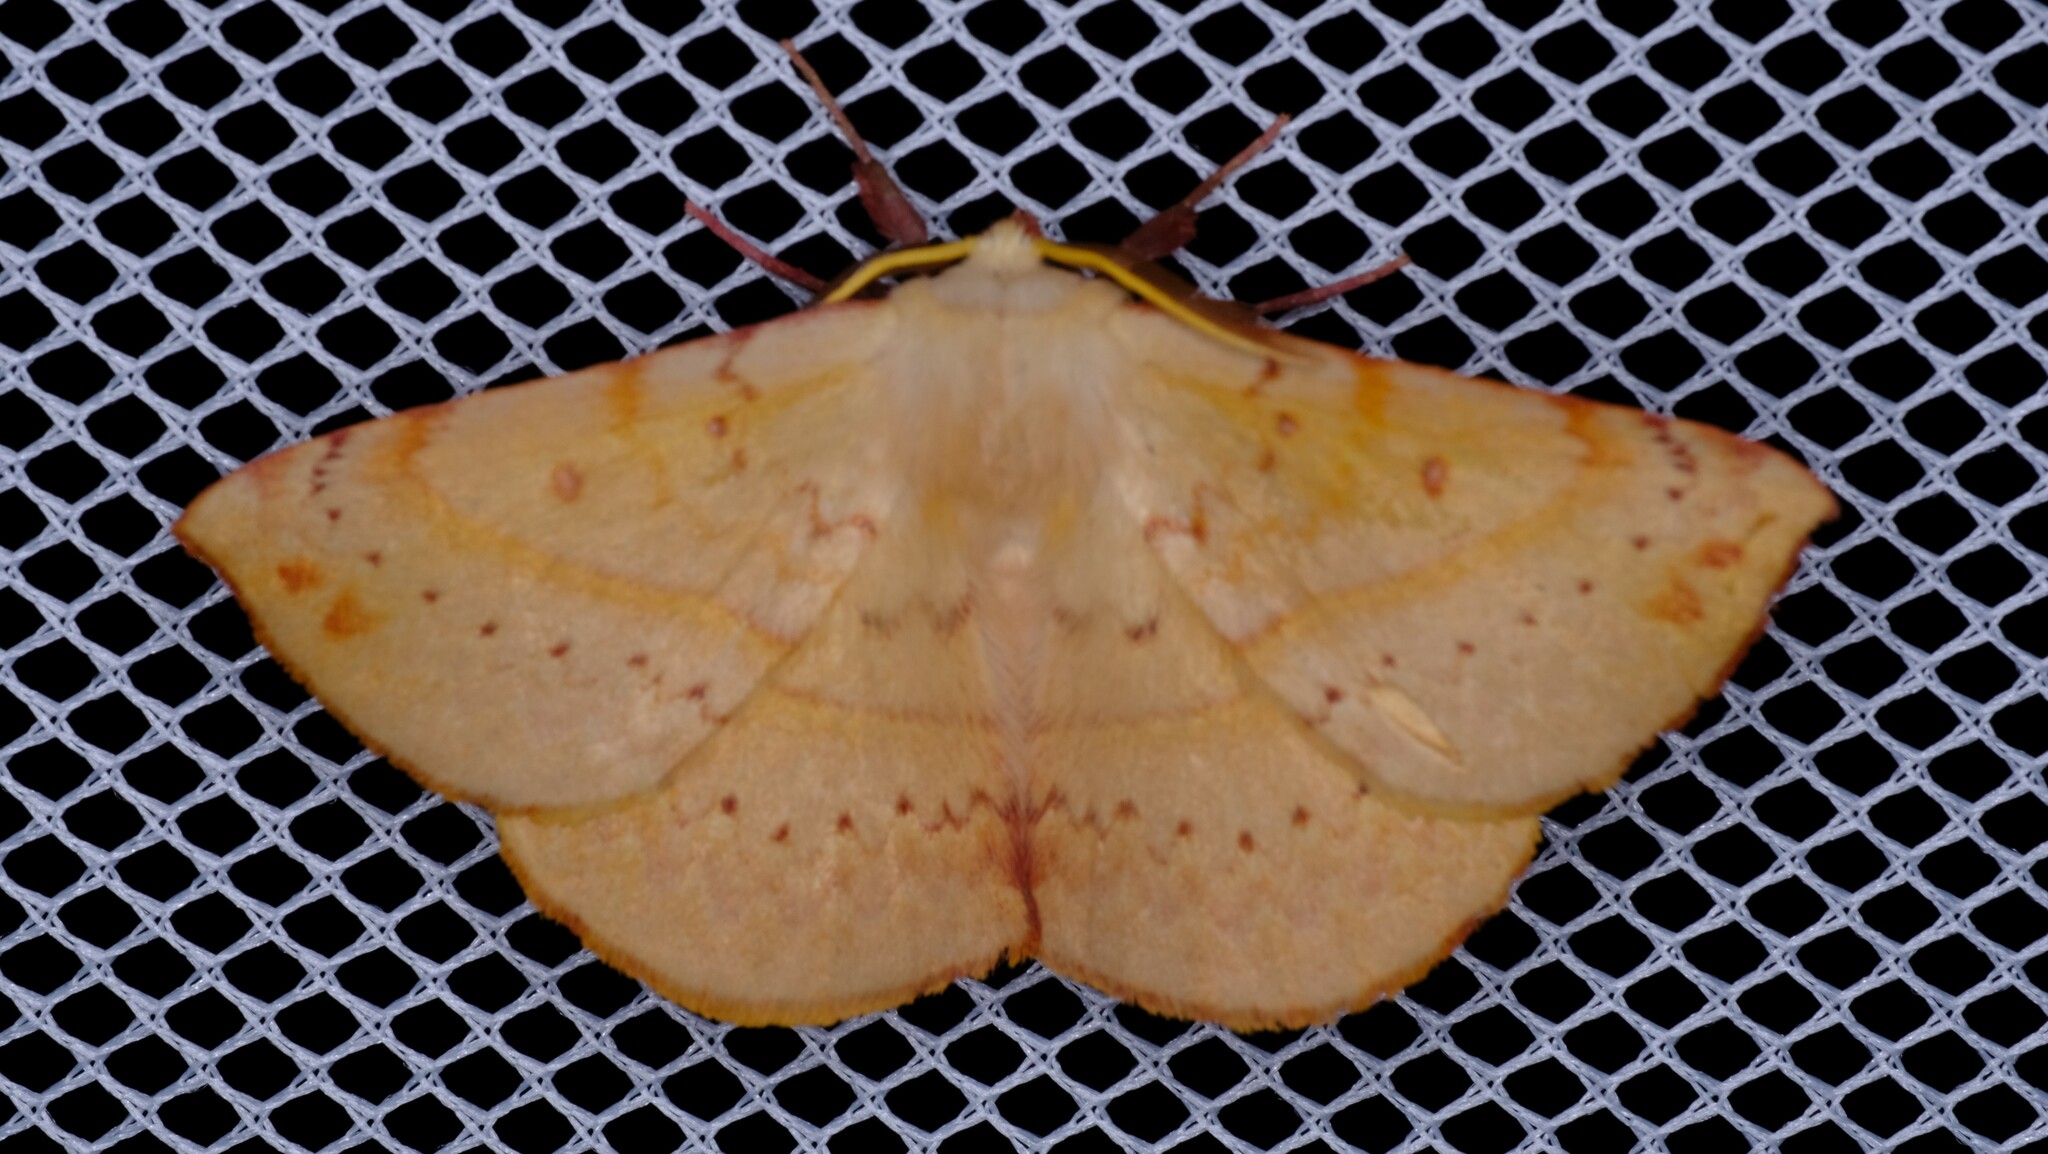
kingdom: Animalia
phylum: Arthropoda
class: Insecta
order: Lepidoptera
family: Anthelidae
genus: Anthela
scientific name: Anthela acuta
